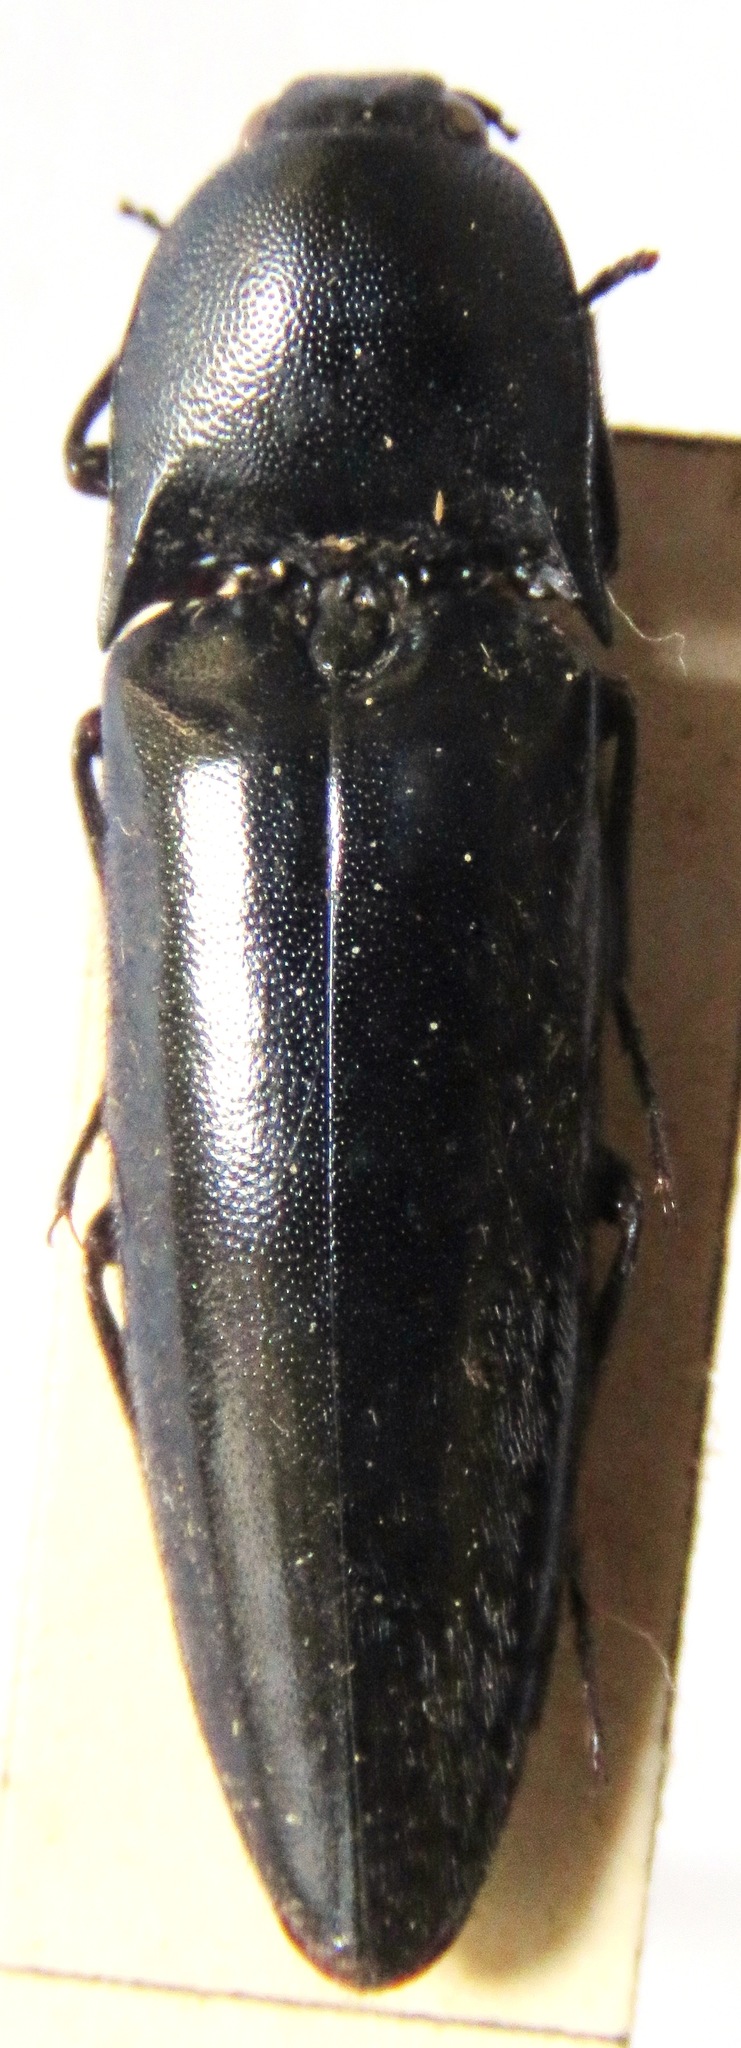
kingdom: Animalia
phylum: Arthropoda
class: Insecta
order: Coleoptera
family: Elateridae
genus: Orthostethus
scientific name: Orthostethus
